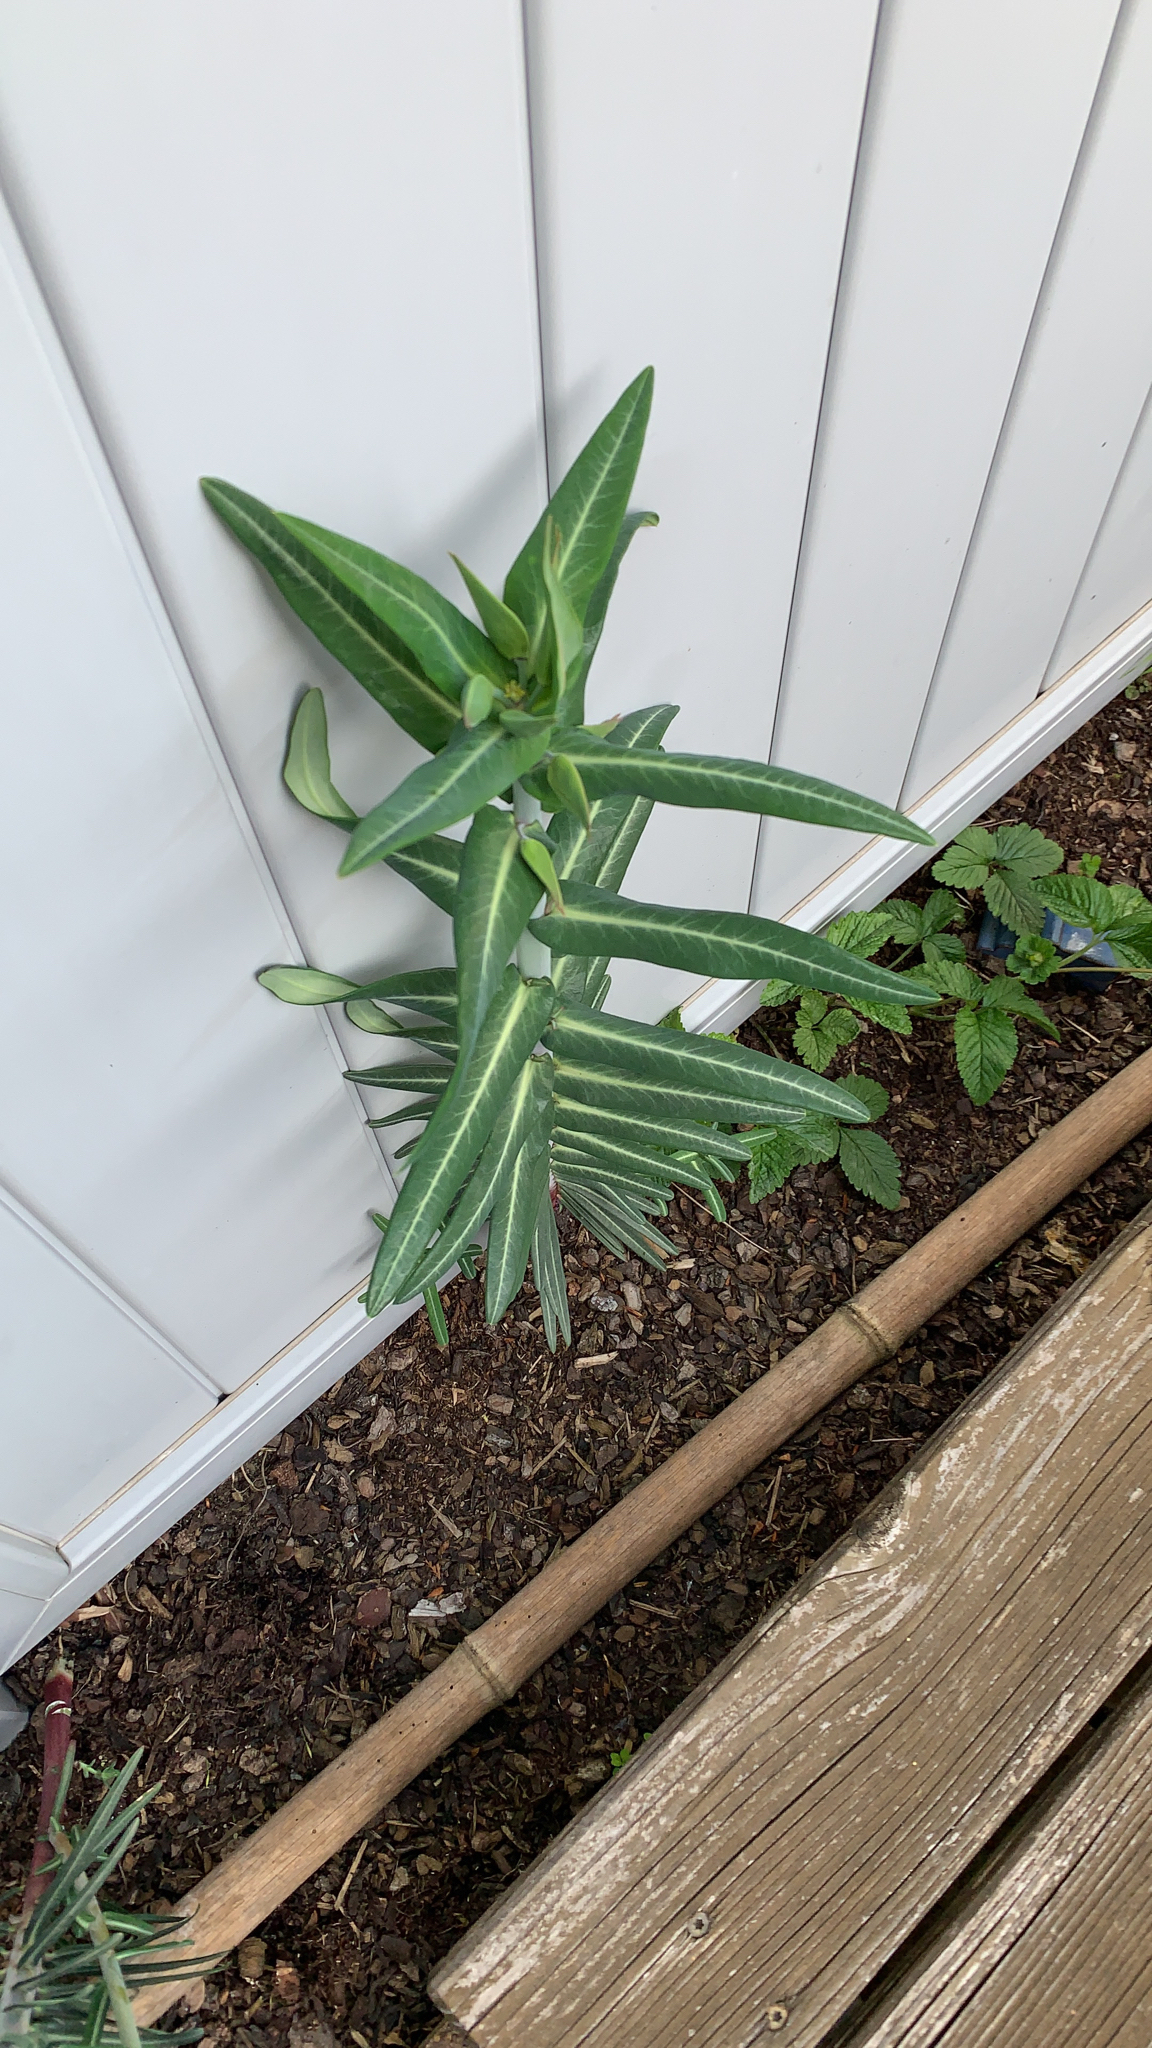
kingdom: Plantae
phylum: Tracheophyta
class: Magnoliopsida
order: Malpighiales
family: Euphorbiaceae
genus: Euphorbia
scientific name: Euphorbia lathyris
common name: Caper spurge
